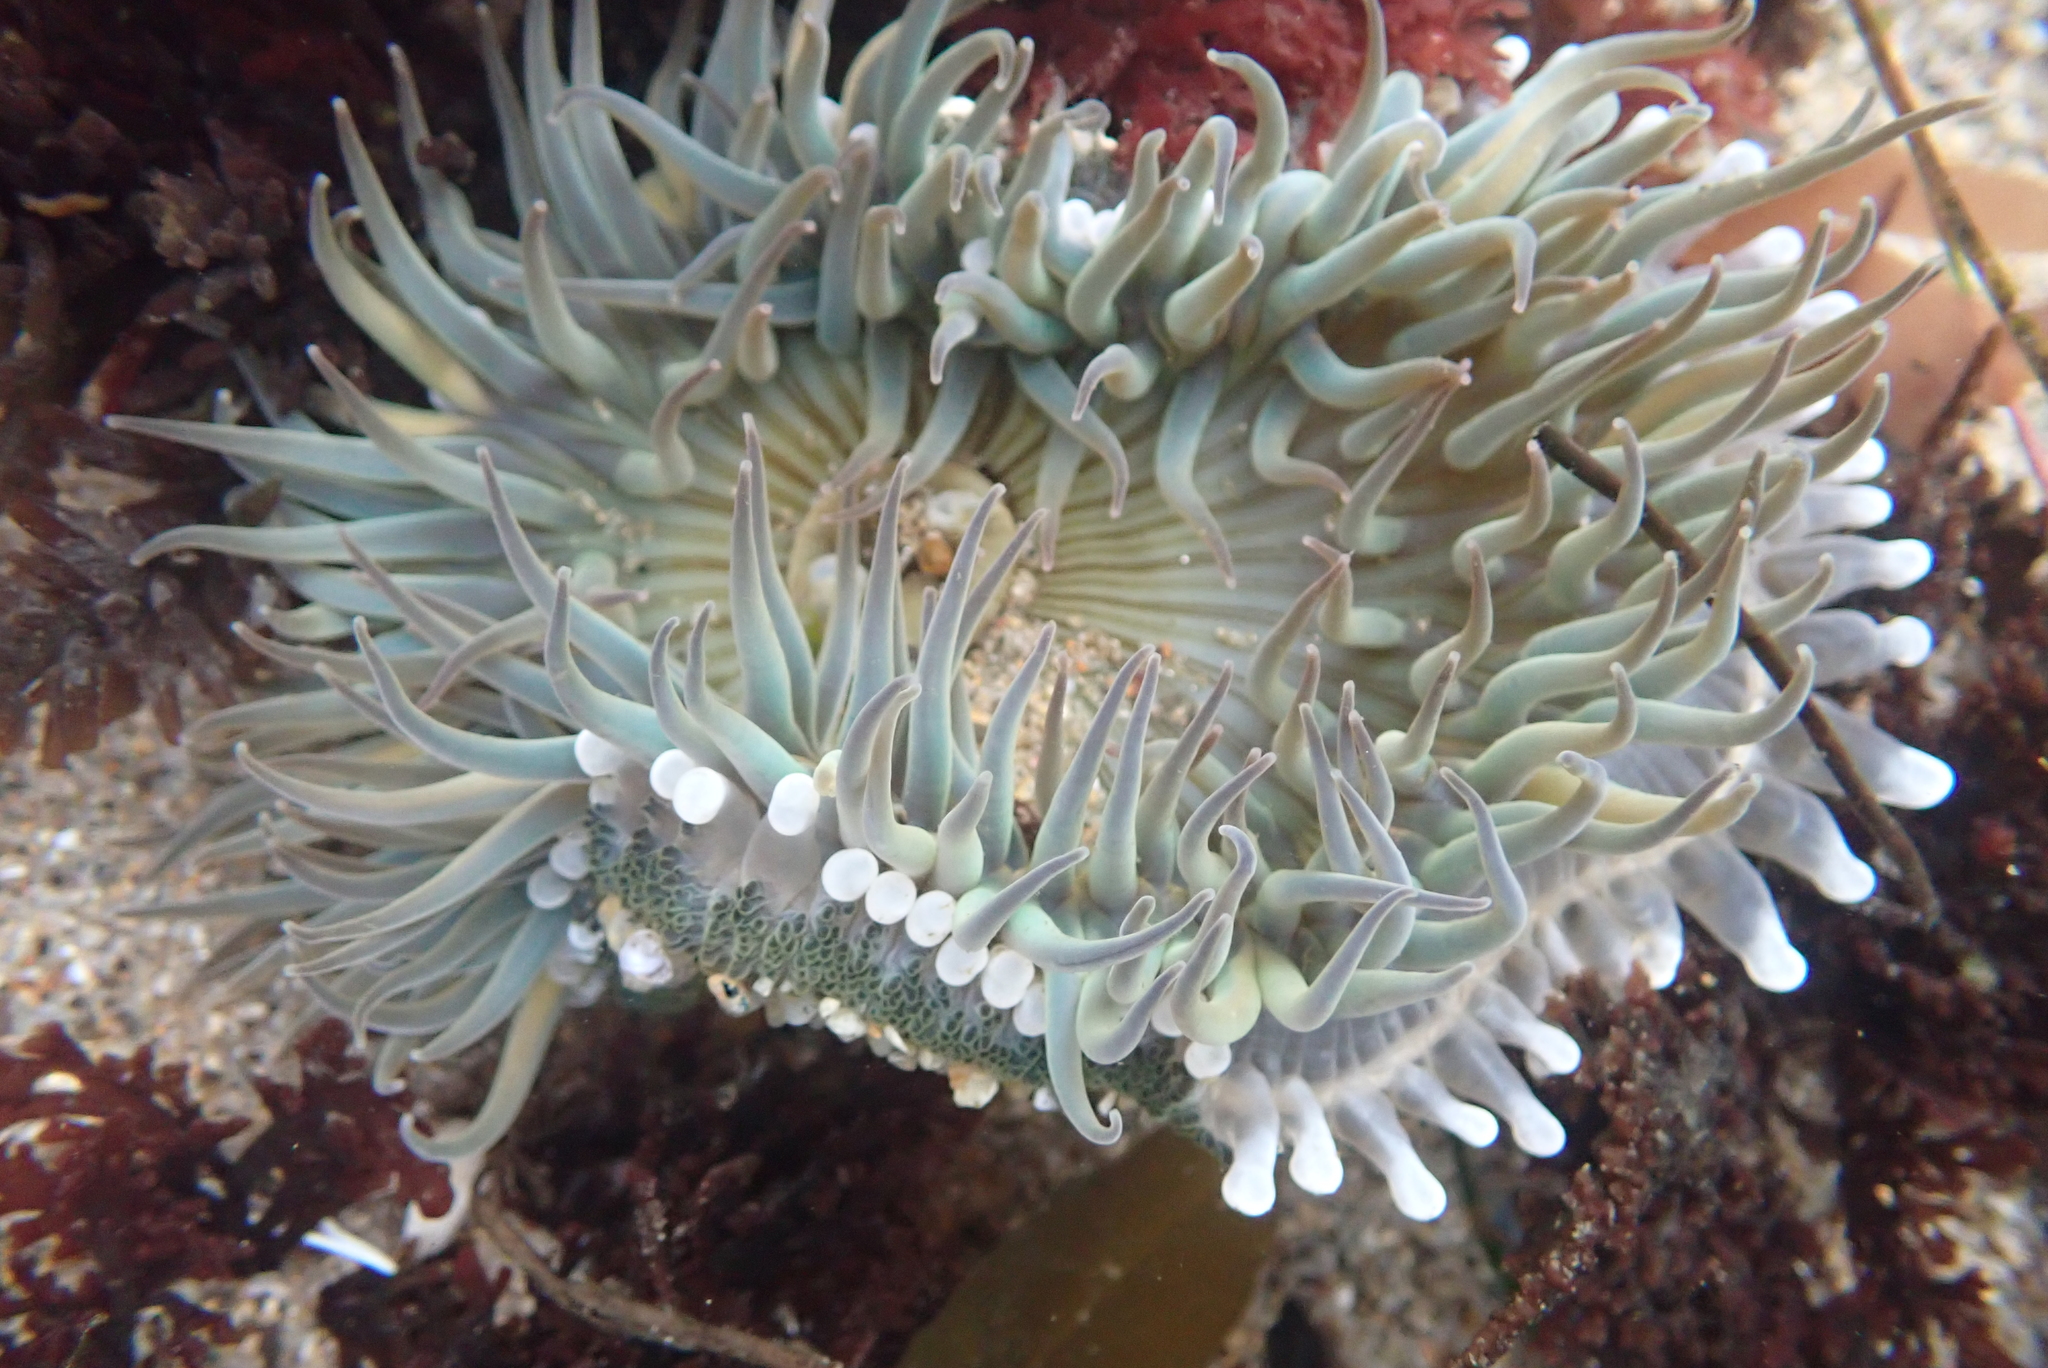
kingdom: Animalia
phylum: Cnidaria
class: Anthozoa
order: Actiniaria
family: Actiniidae
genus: Anthopleura
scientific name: Anthopleura sola
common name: Sun anemone
